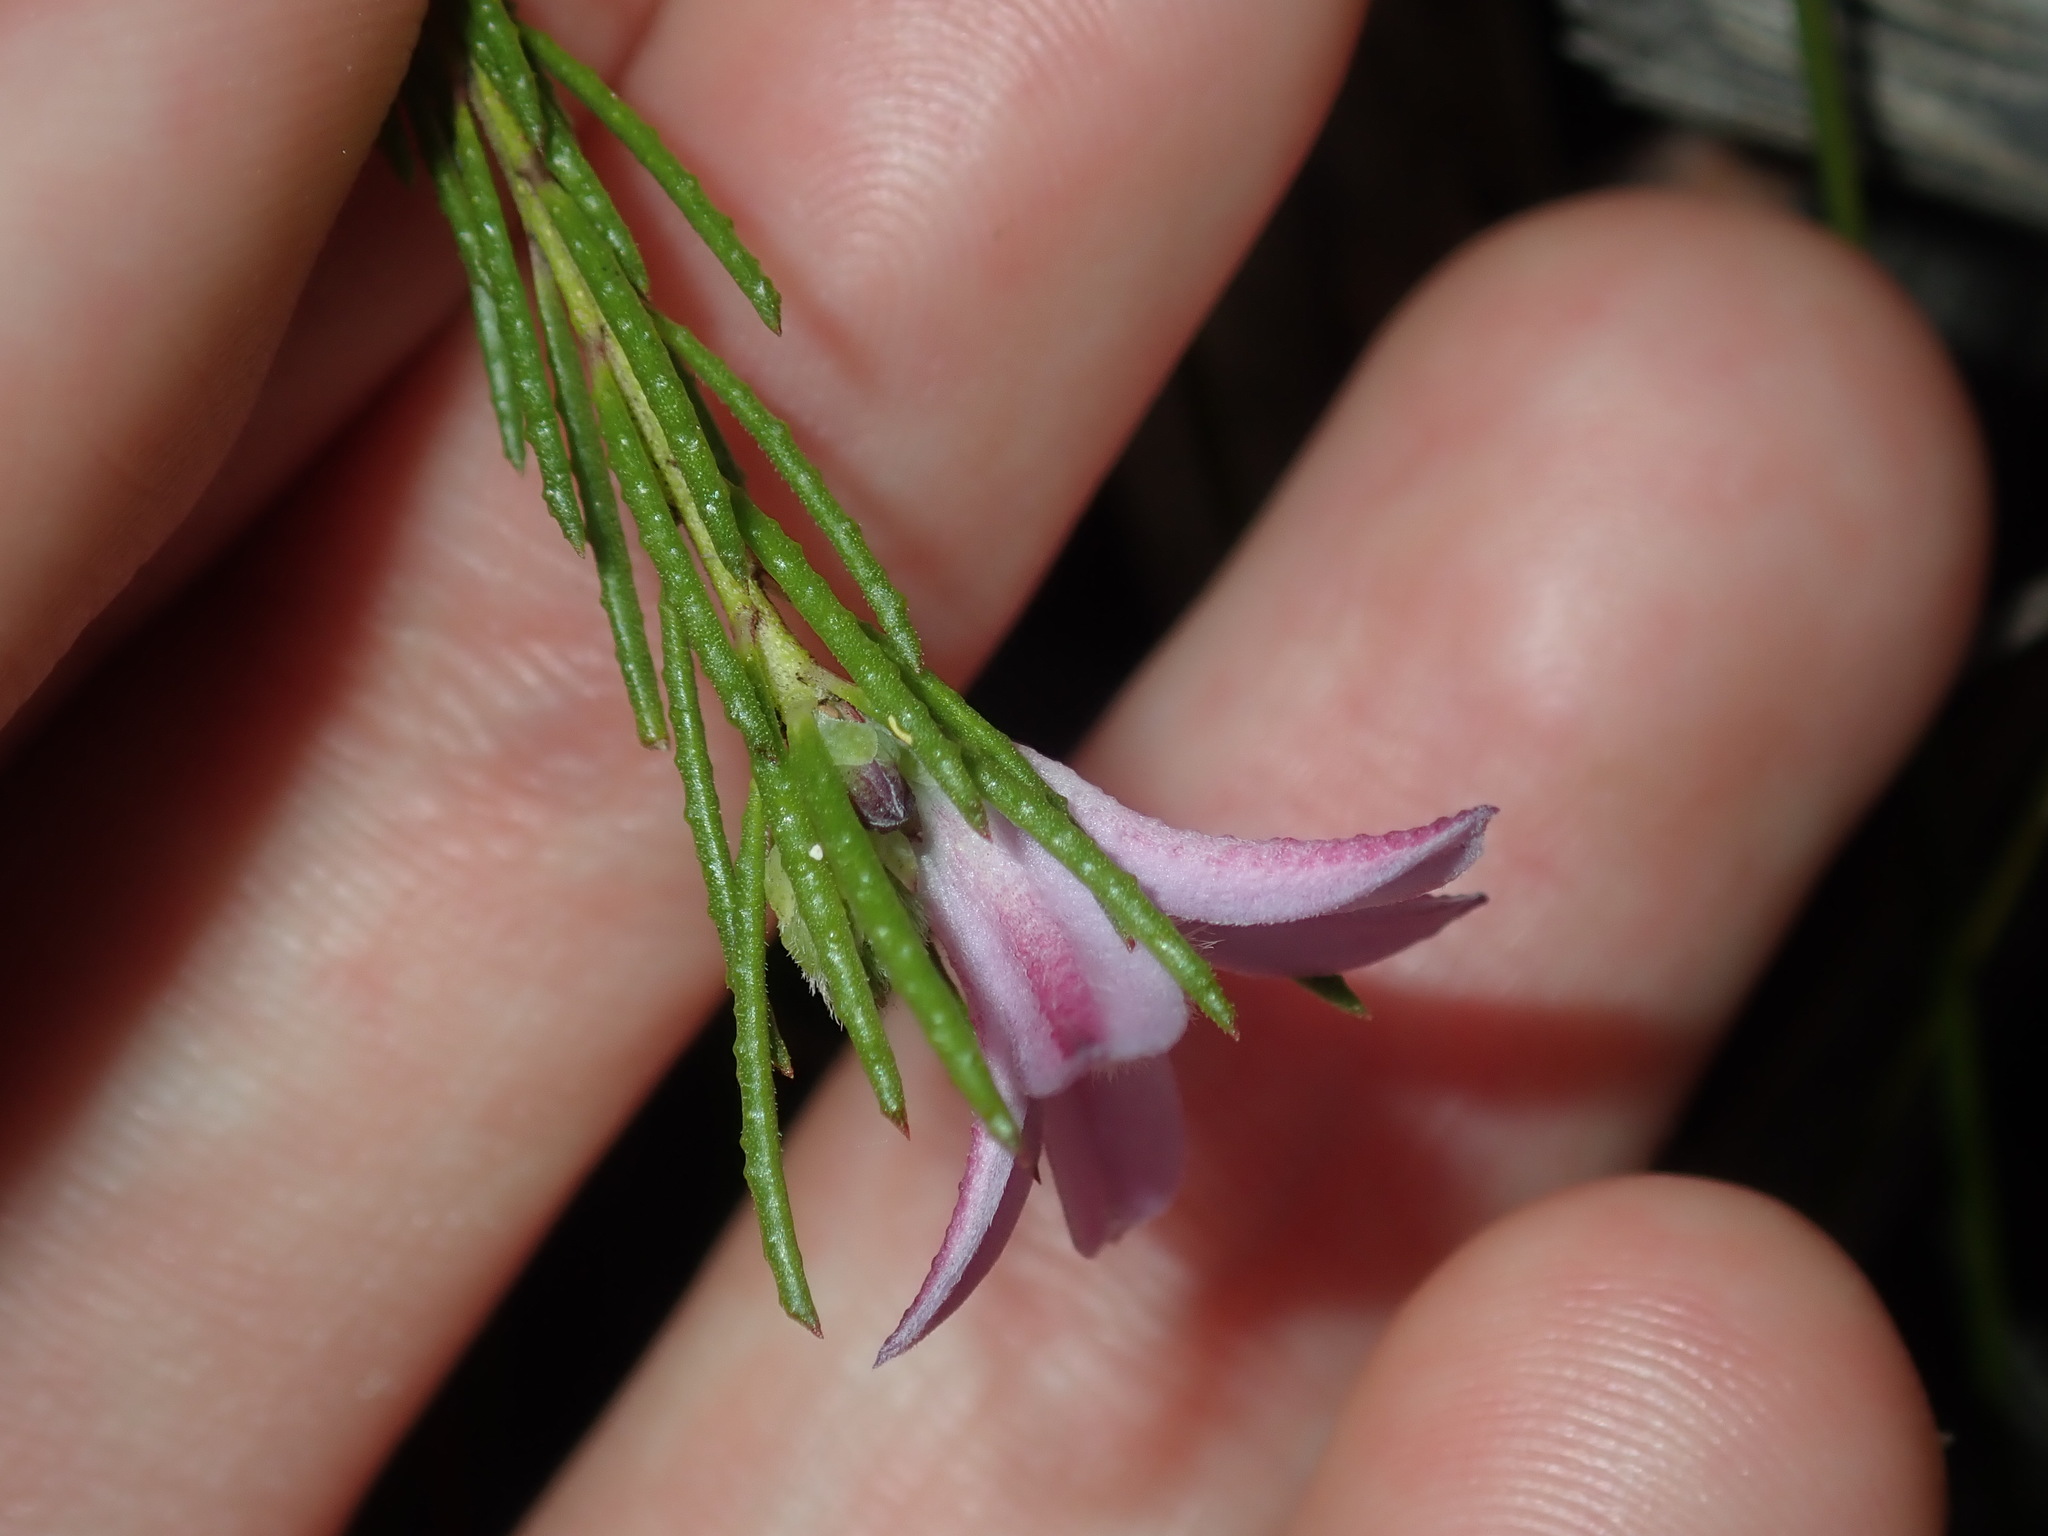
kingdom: Plantae
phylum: Tracheophyta
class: Magnoliopsida
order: Sapindales
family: Rutaceae
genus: Philotheca
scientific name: Philotheca reichenbachii
